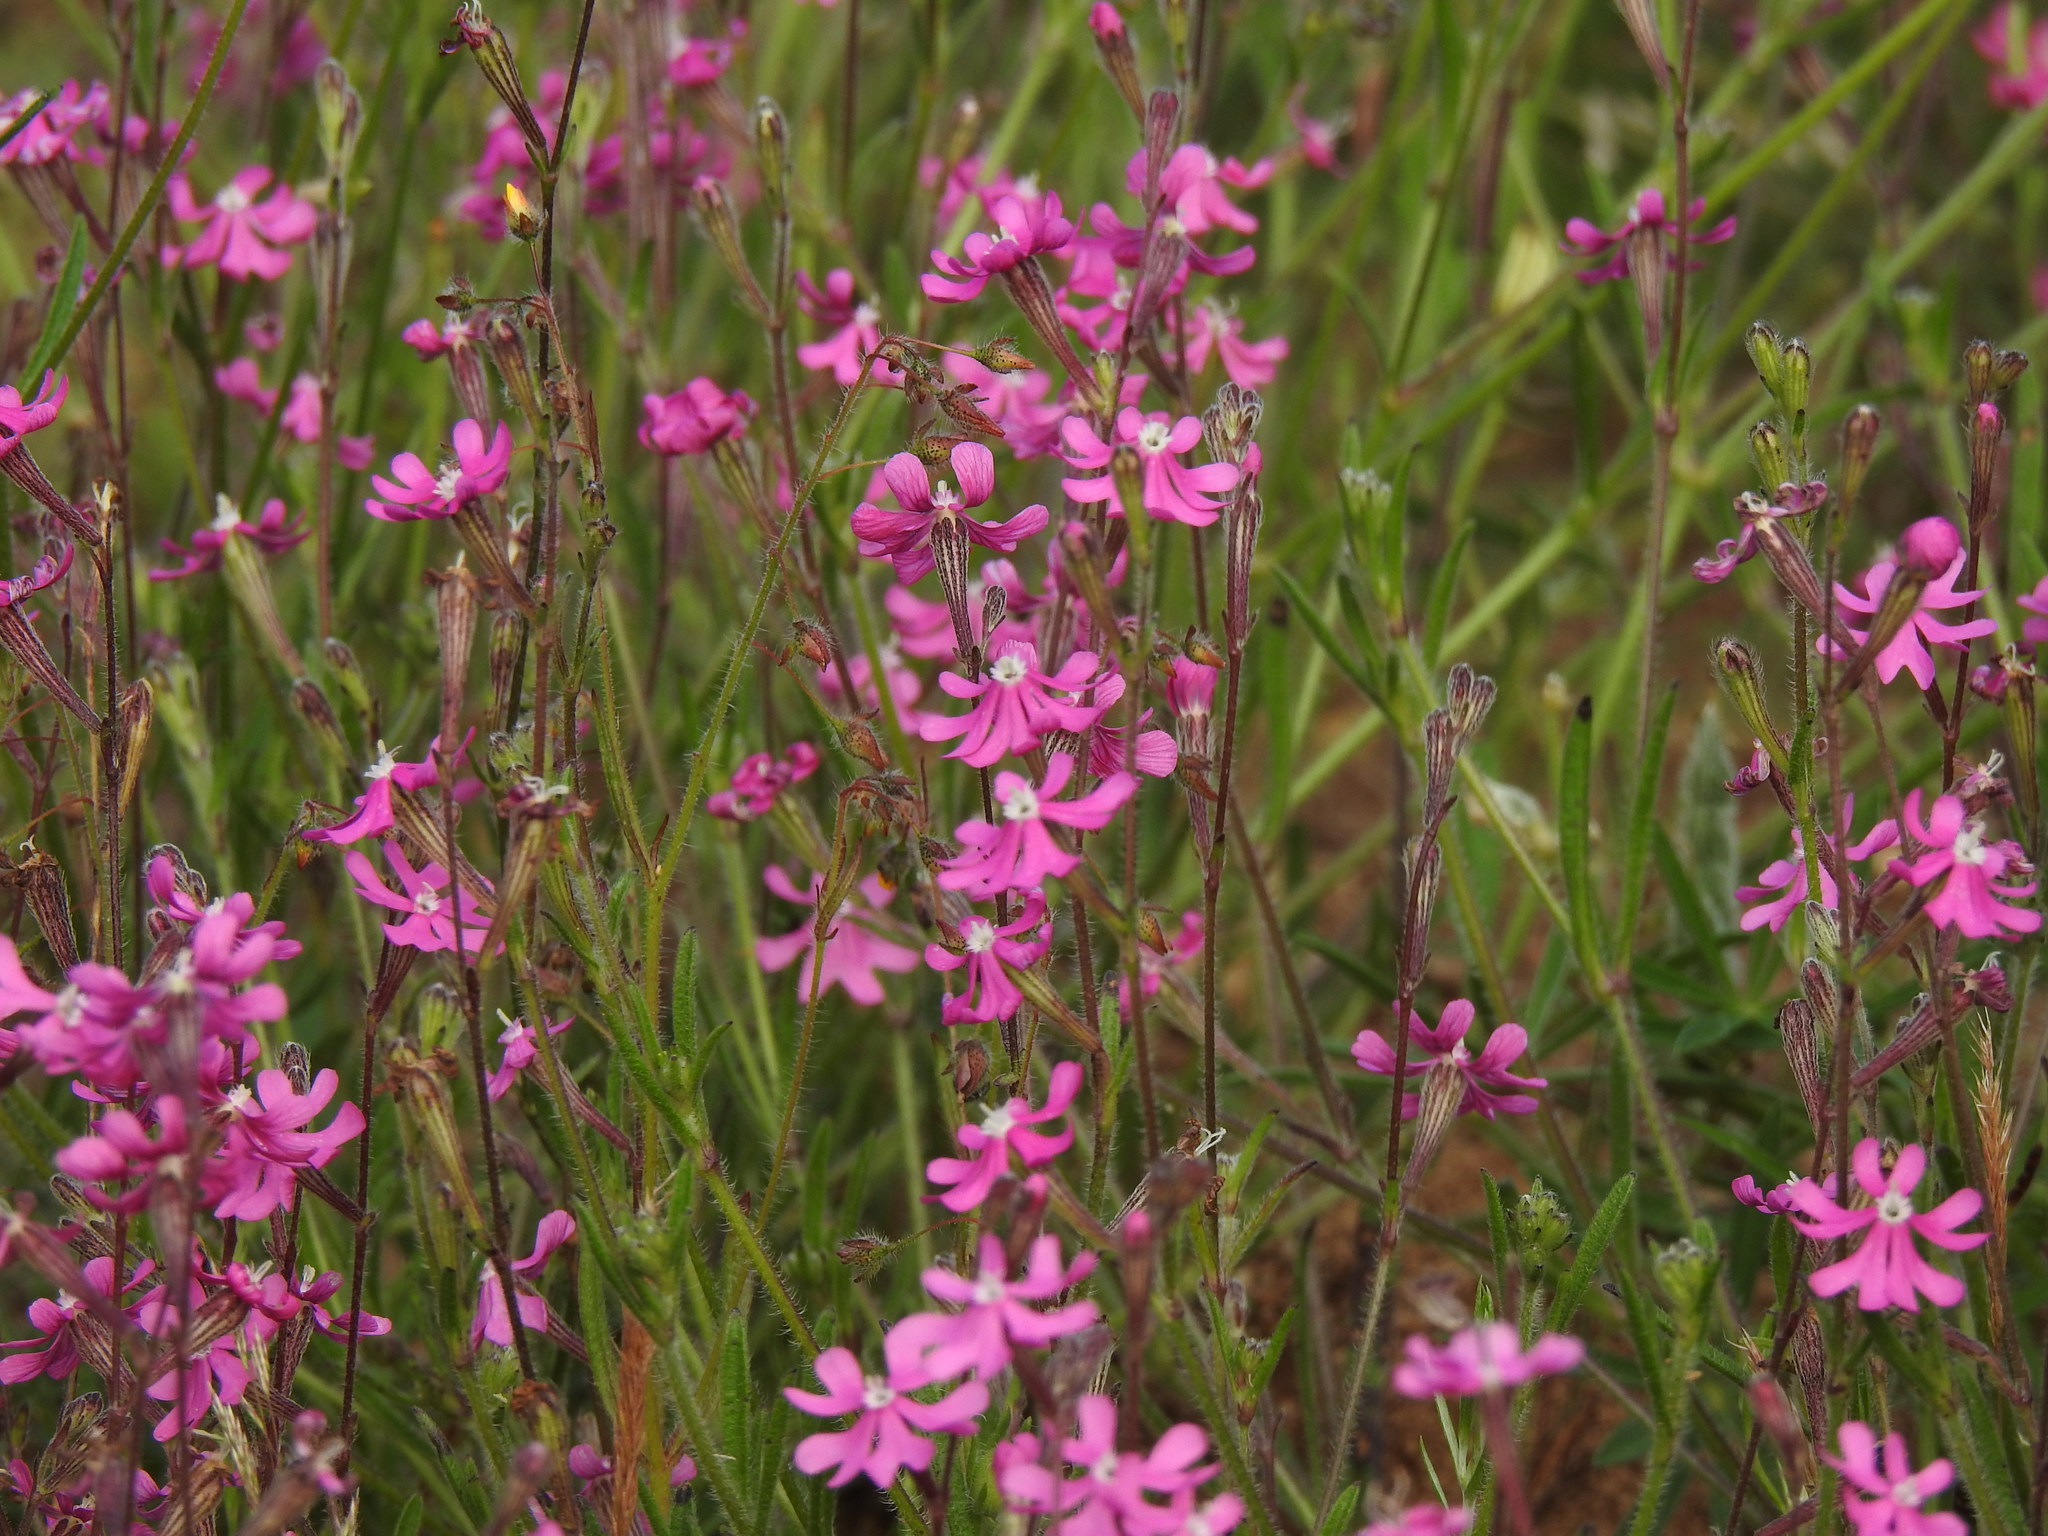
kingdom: Plantae
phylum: Tracheophyta
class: Magnoliopsida
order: Caryophyllales
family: Caryophyllaceae
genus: Silene
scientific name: Silene scabriflora
